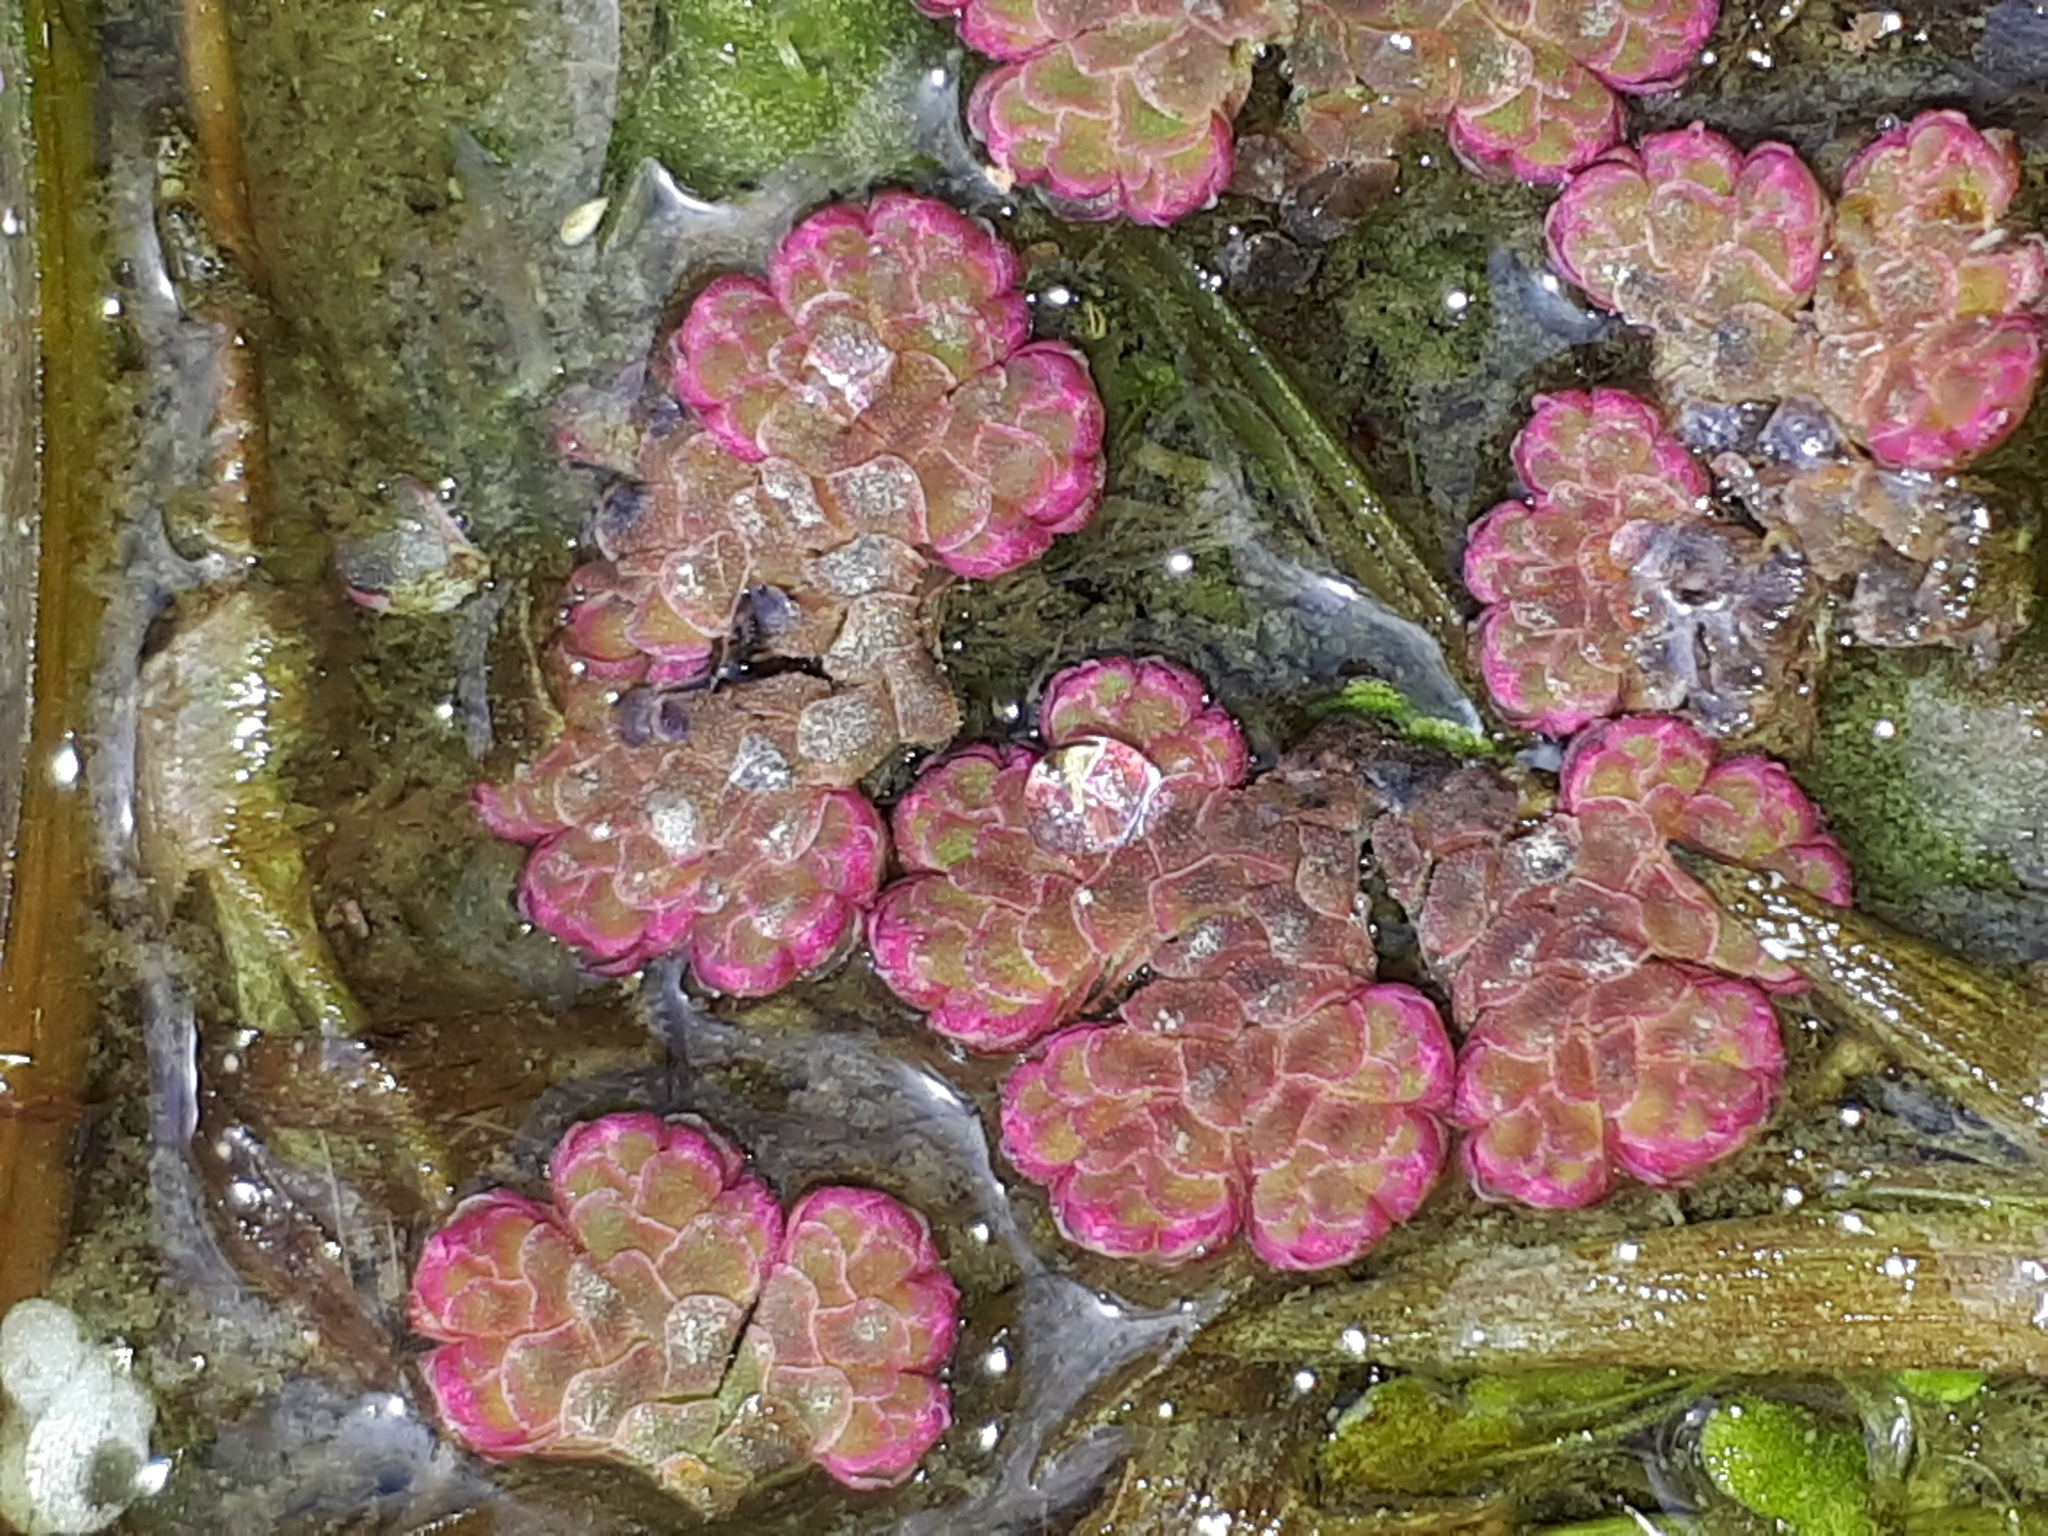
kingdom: Plantae
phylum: Tracheophyta
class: Polypodiopsida
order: Salviniales
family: Salviniaceae
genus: Azolla
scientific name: Azolla filiculoides
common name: Water fern
